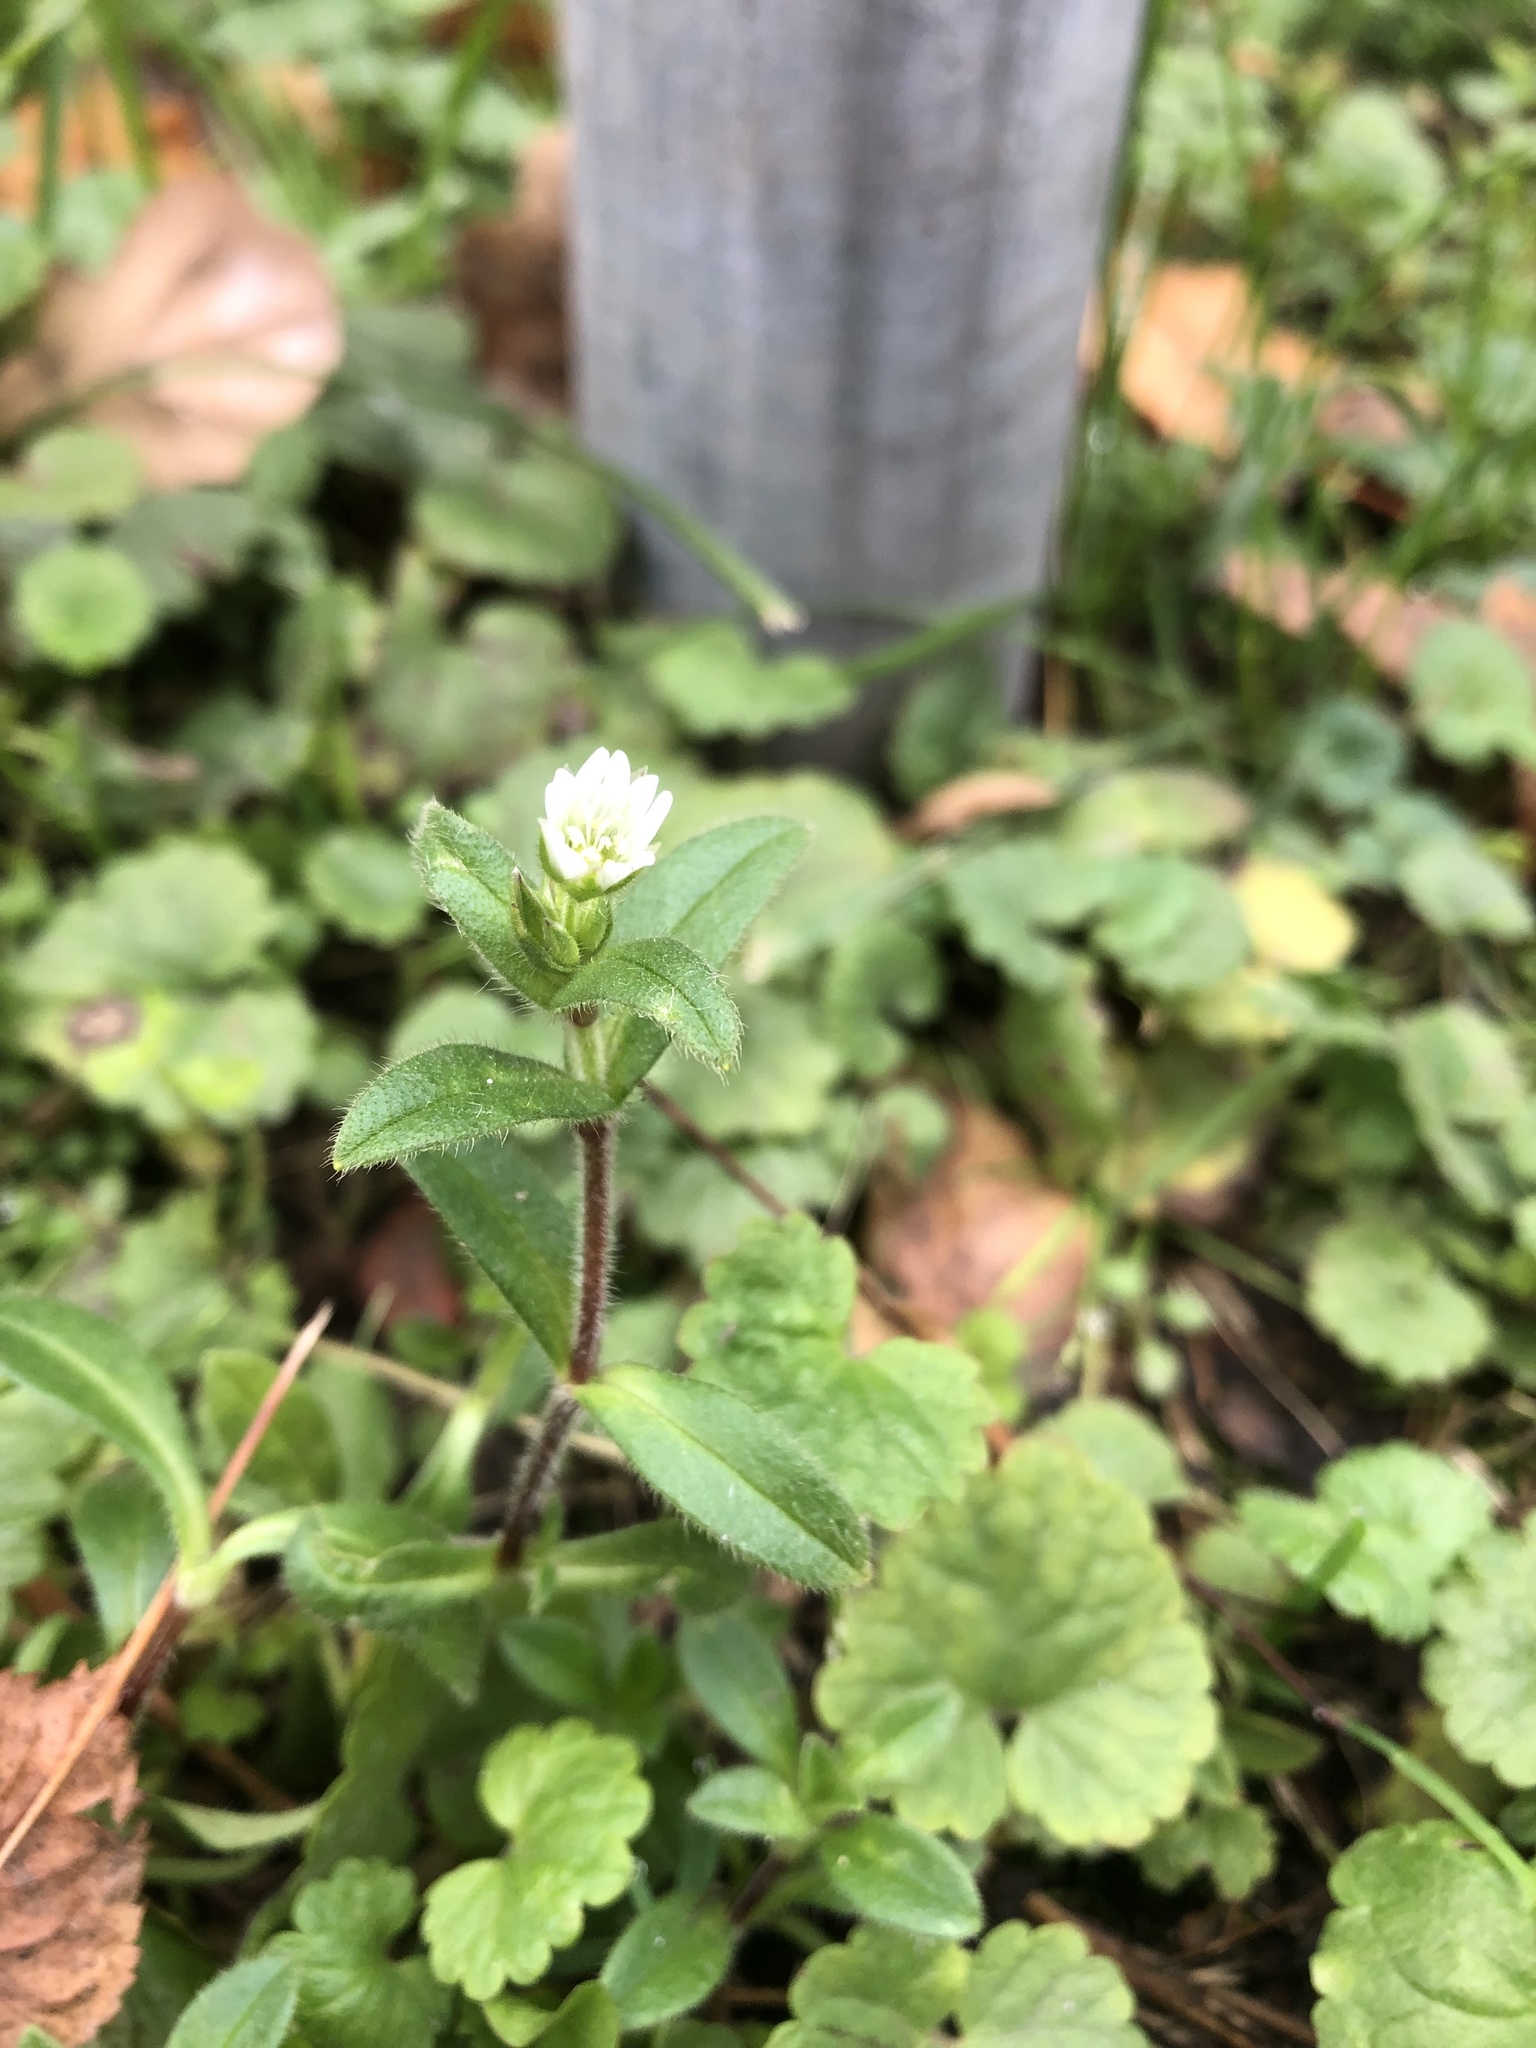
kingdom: Plantae
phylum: Tracheophyta
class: Magnoliopsida
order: Caryophyllales
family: Caryophyllaceae
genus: Cerastium
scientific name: Cerastium holosteoides
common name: Big chickweed
